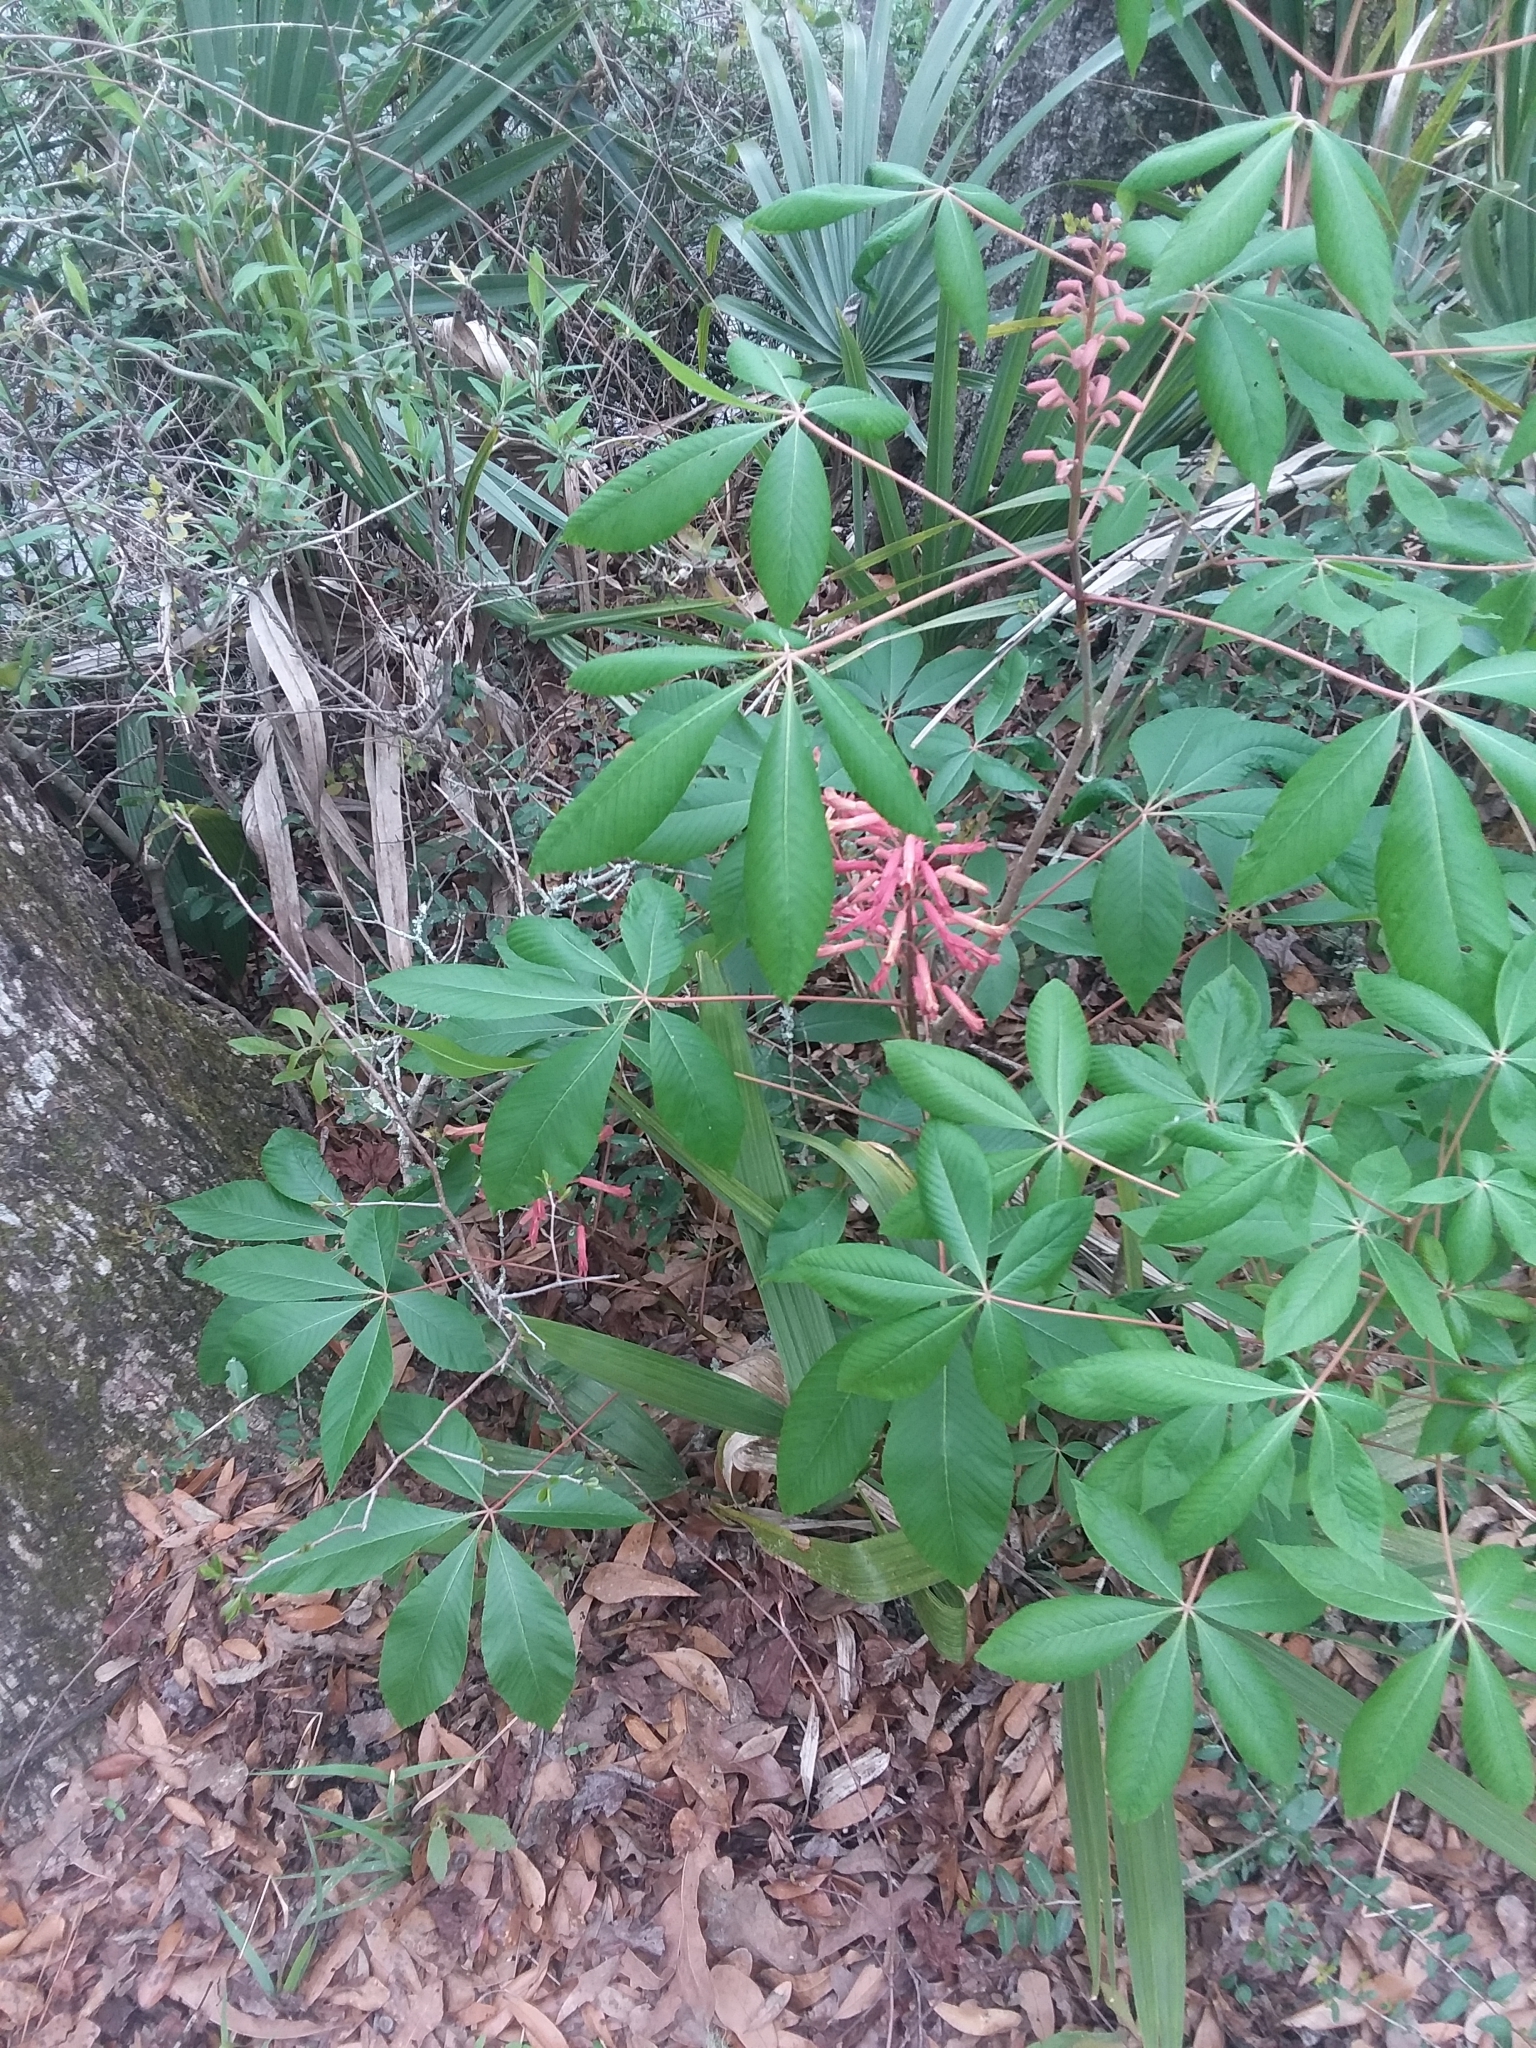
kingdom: Plantae
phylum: Tracheophyta
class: Magnoliopsida
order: Sapindales
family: Sapindaceae
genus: Aesculus
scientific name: Aesculus pavia
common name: Red buckeye
